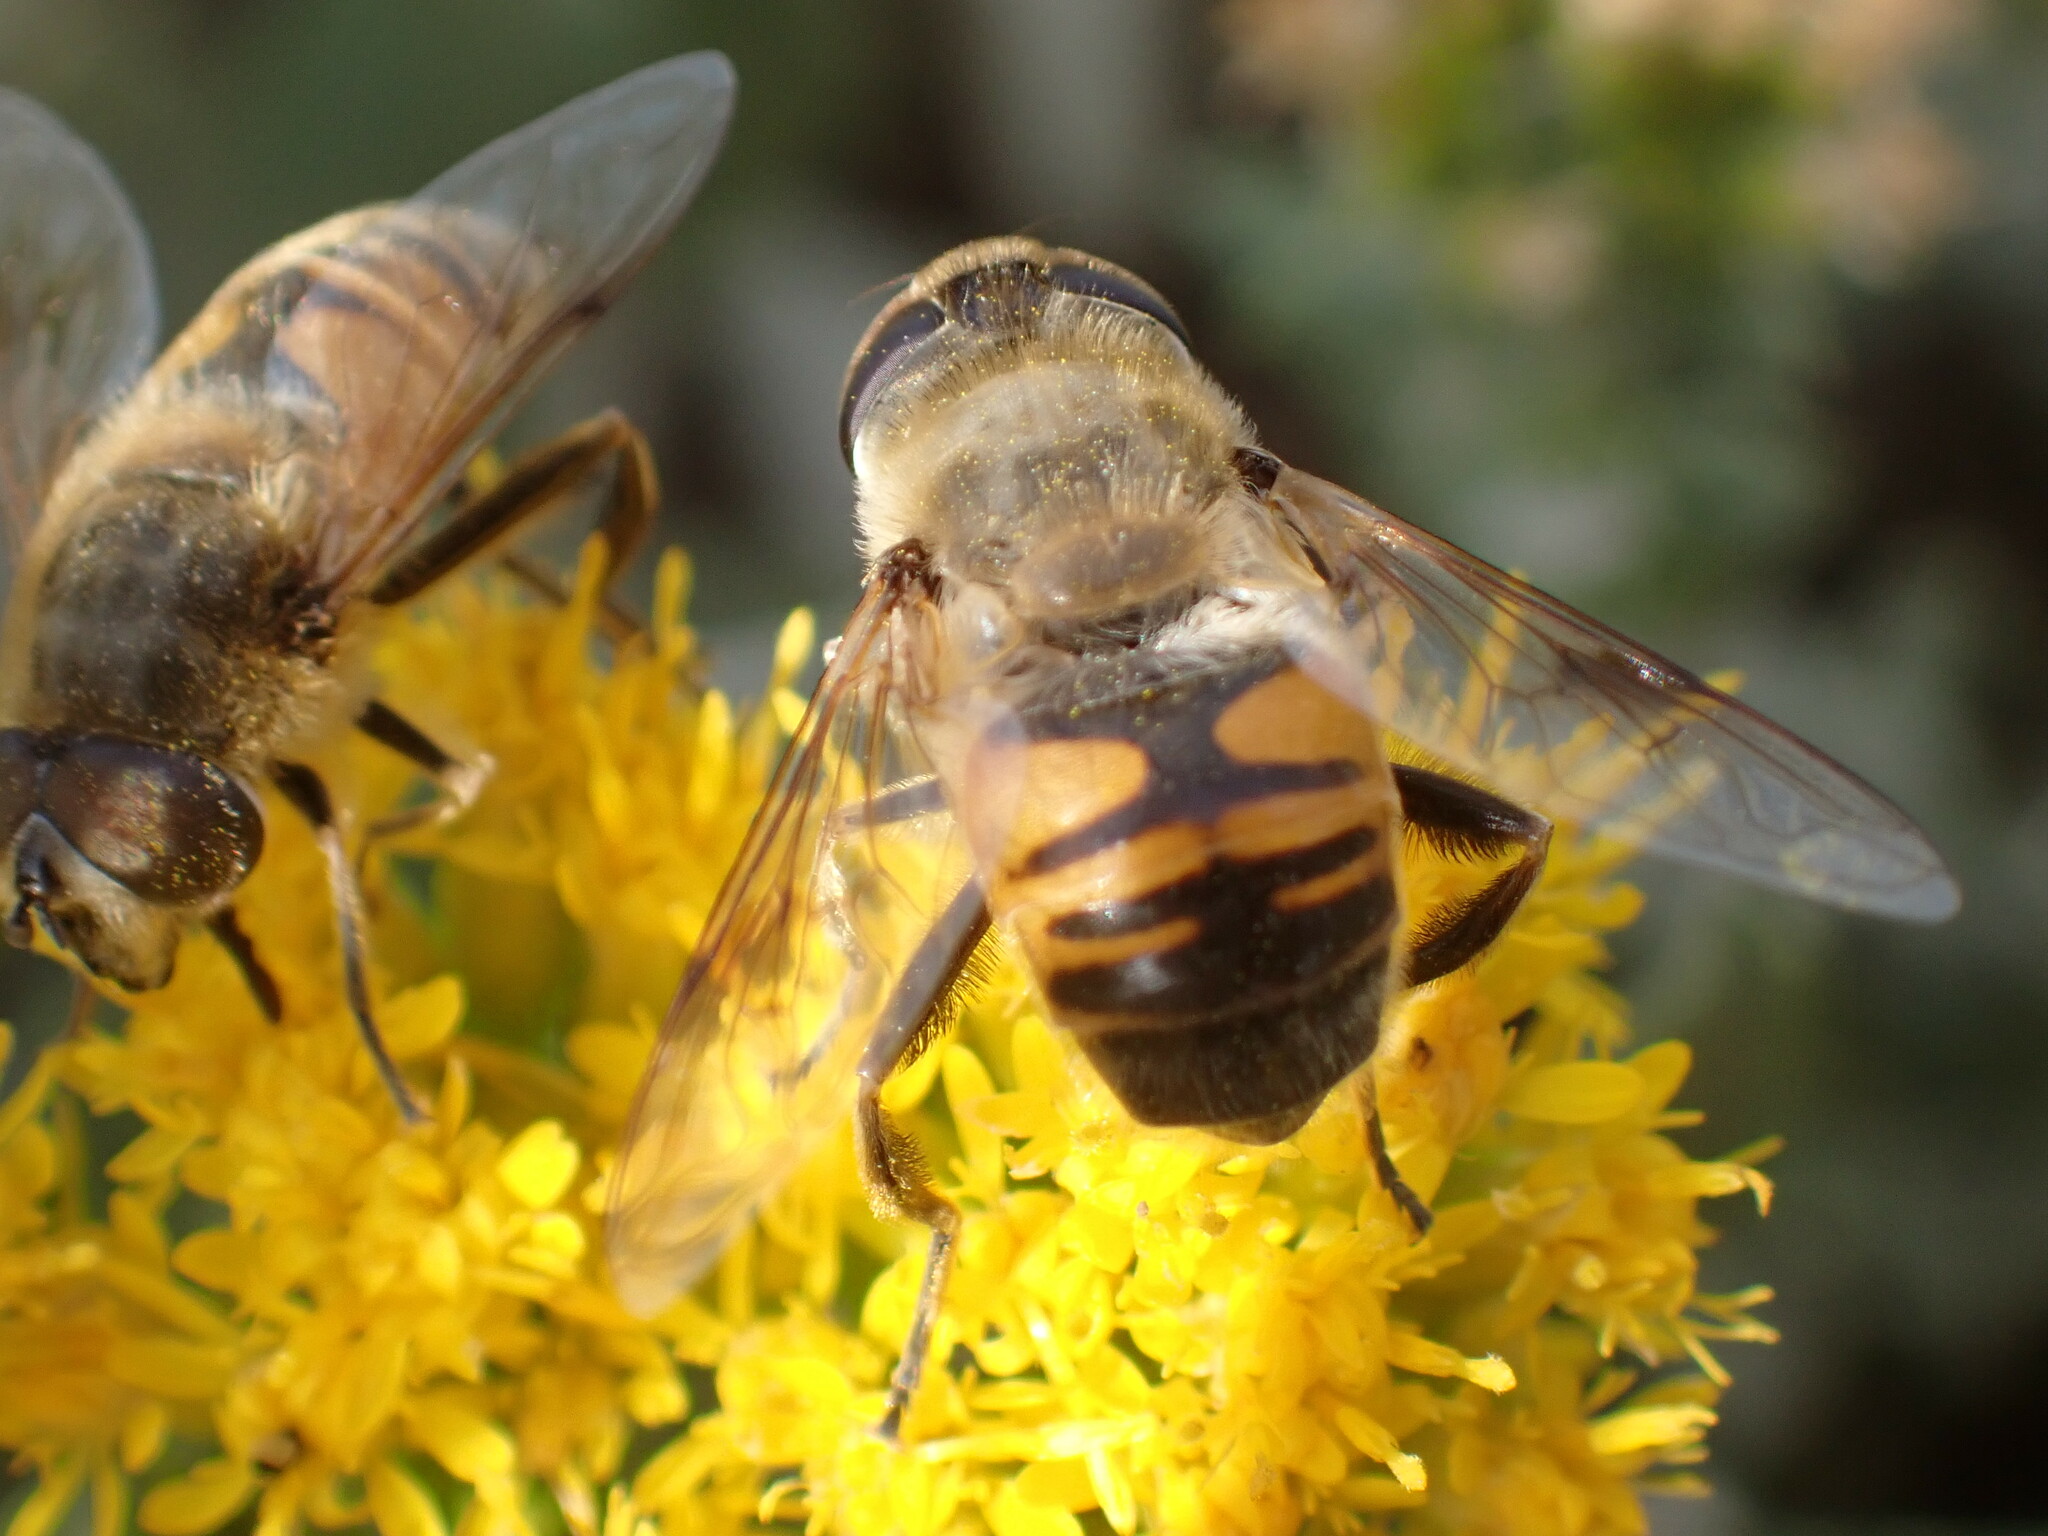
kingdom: Animalia
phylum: Arthropoda
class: Insecta
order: Diptera
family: Syrphidae
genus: Eristalis
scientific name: Eristalis tenax
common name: Drone fly
